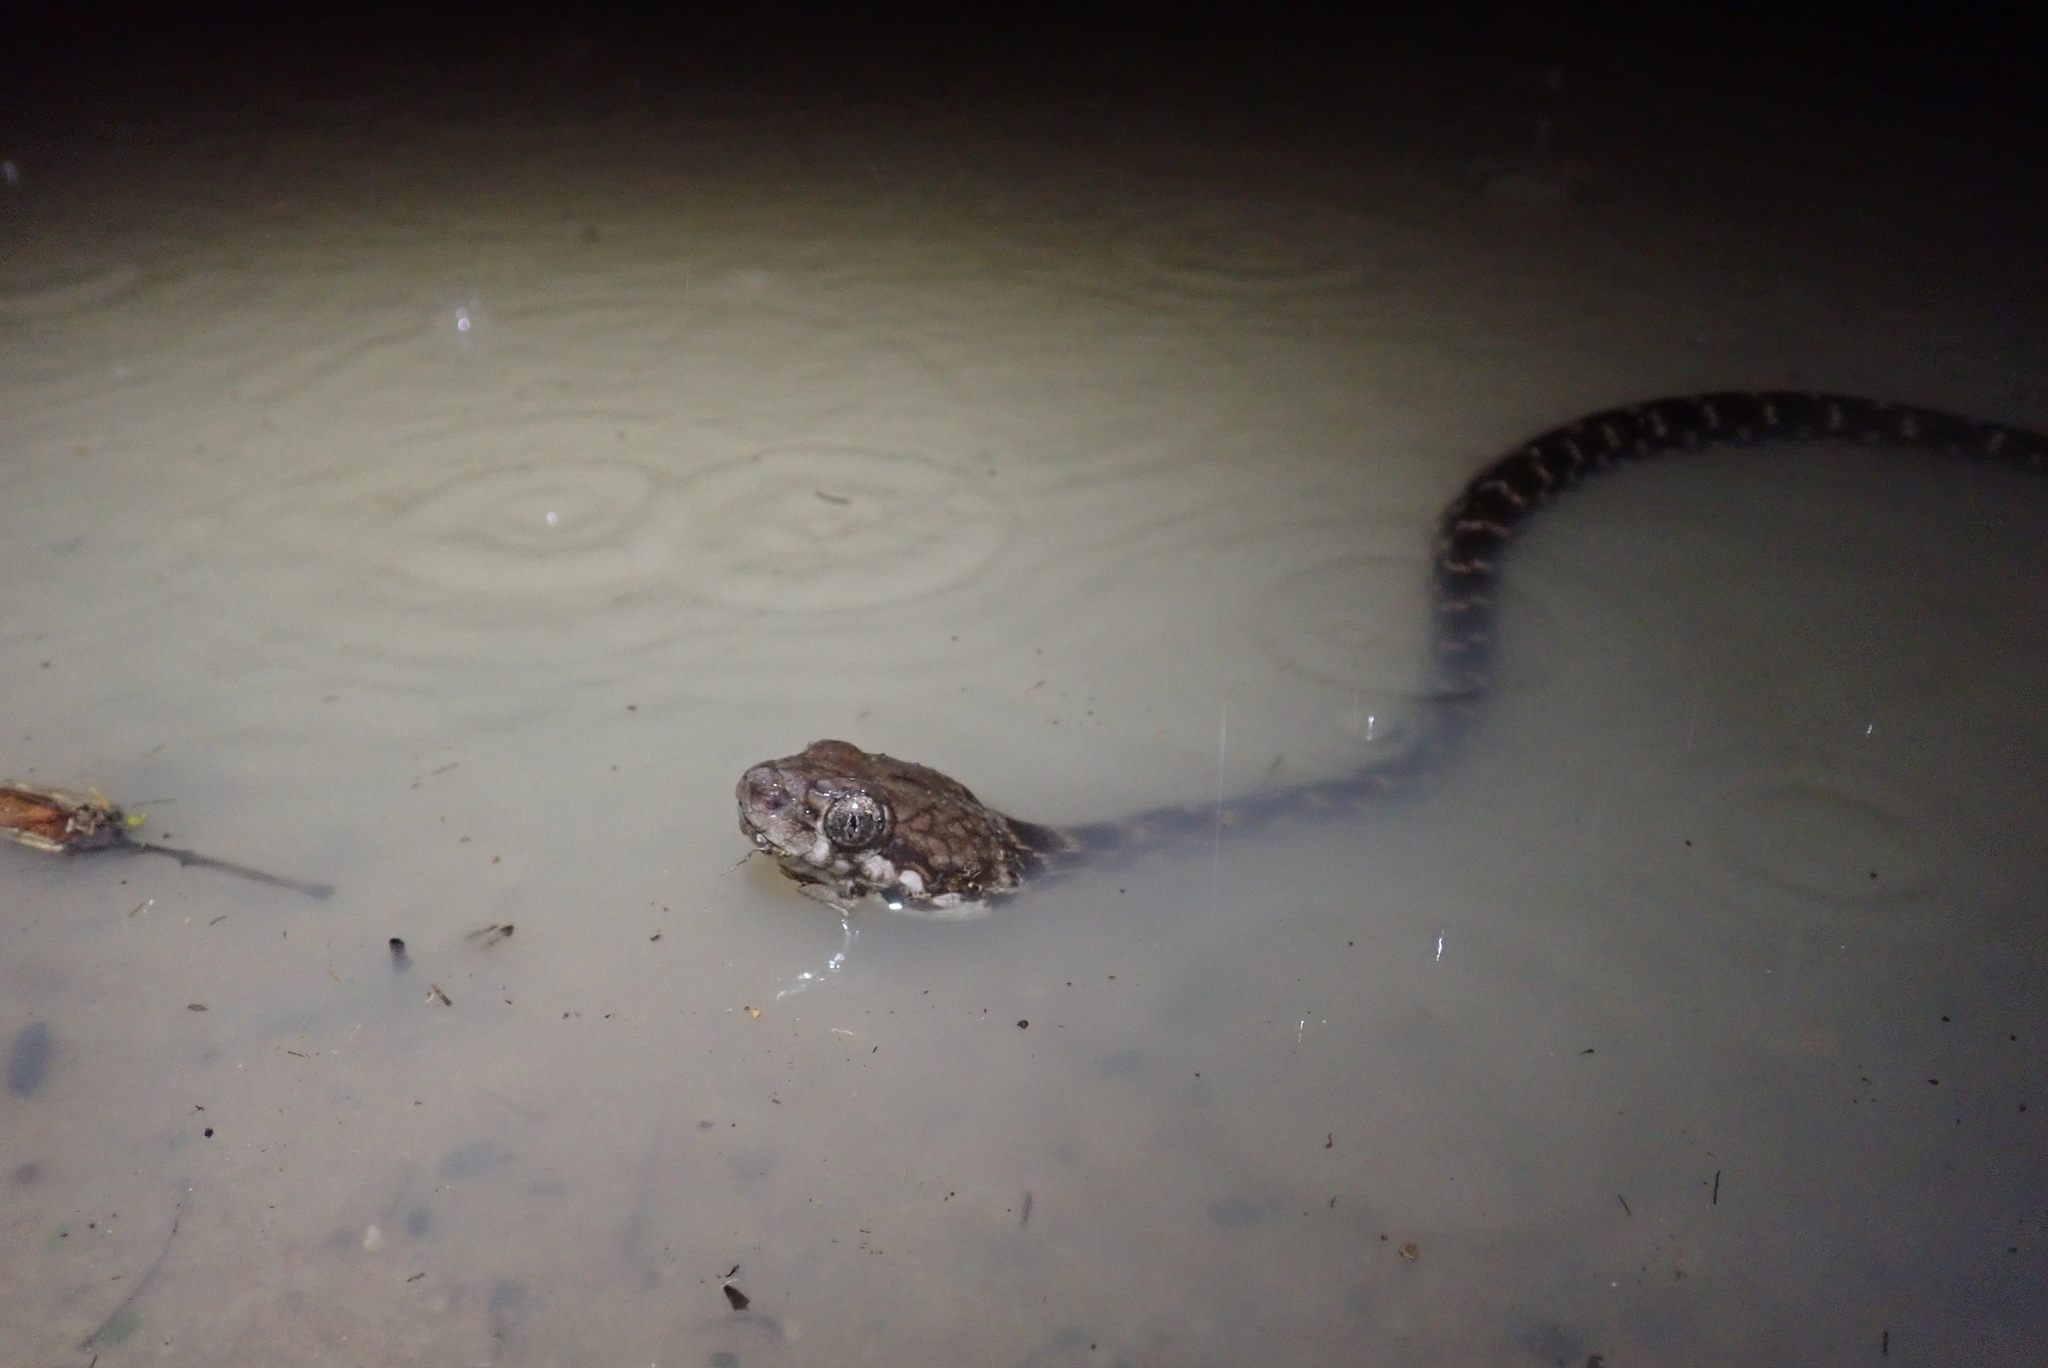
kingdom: Animalia
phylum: Chordata
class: Squamata
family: Pseudoxyrhophiidae
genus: Madagascarophis
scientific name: Madagascarophis colubrinus
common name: Madagascar night snake
